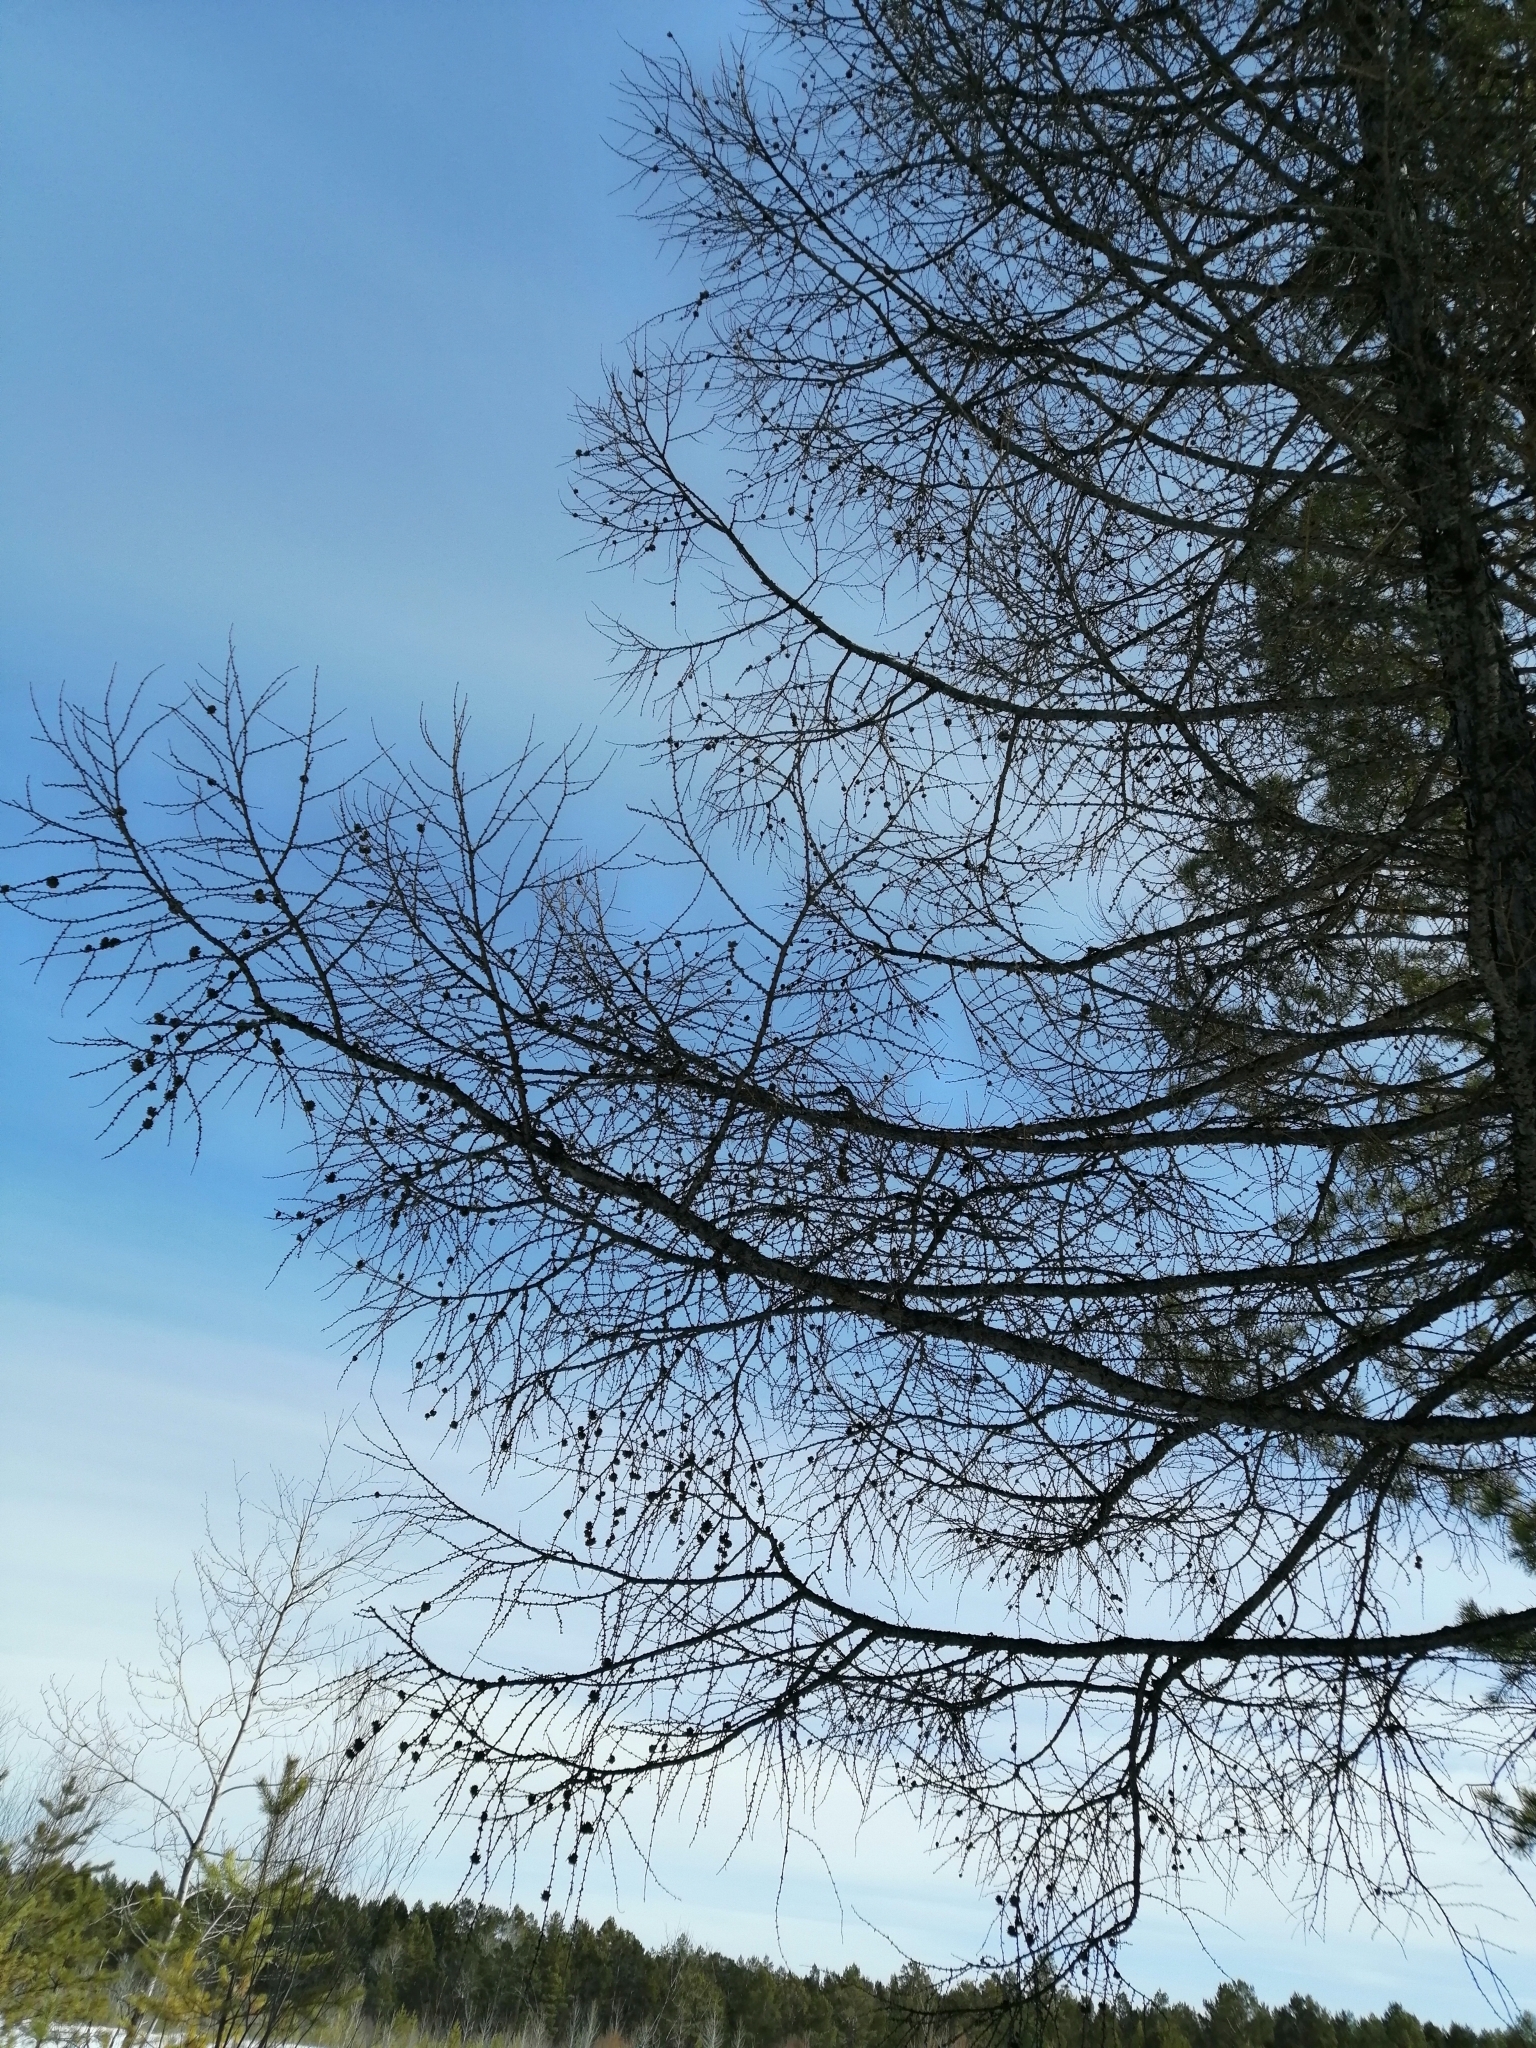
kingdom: Plantae
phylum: Tracheophyta
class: Pinopsida
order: Pinales
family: Pinaceae
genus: Larix
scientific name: Larix sibirica
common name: Siberian larch
